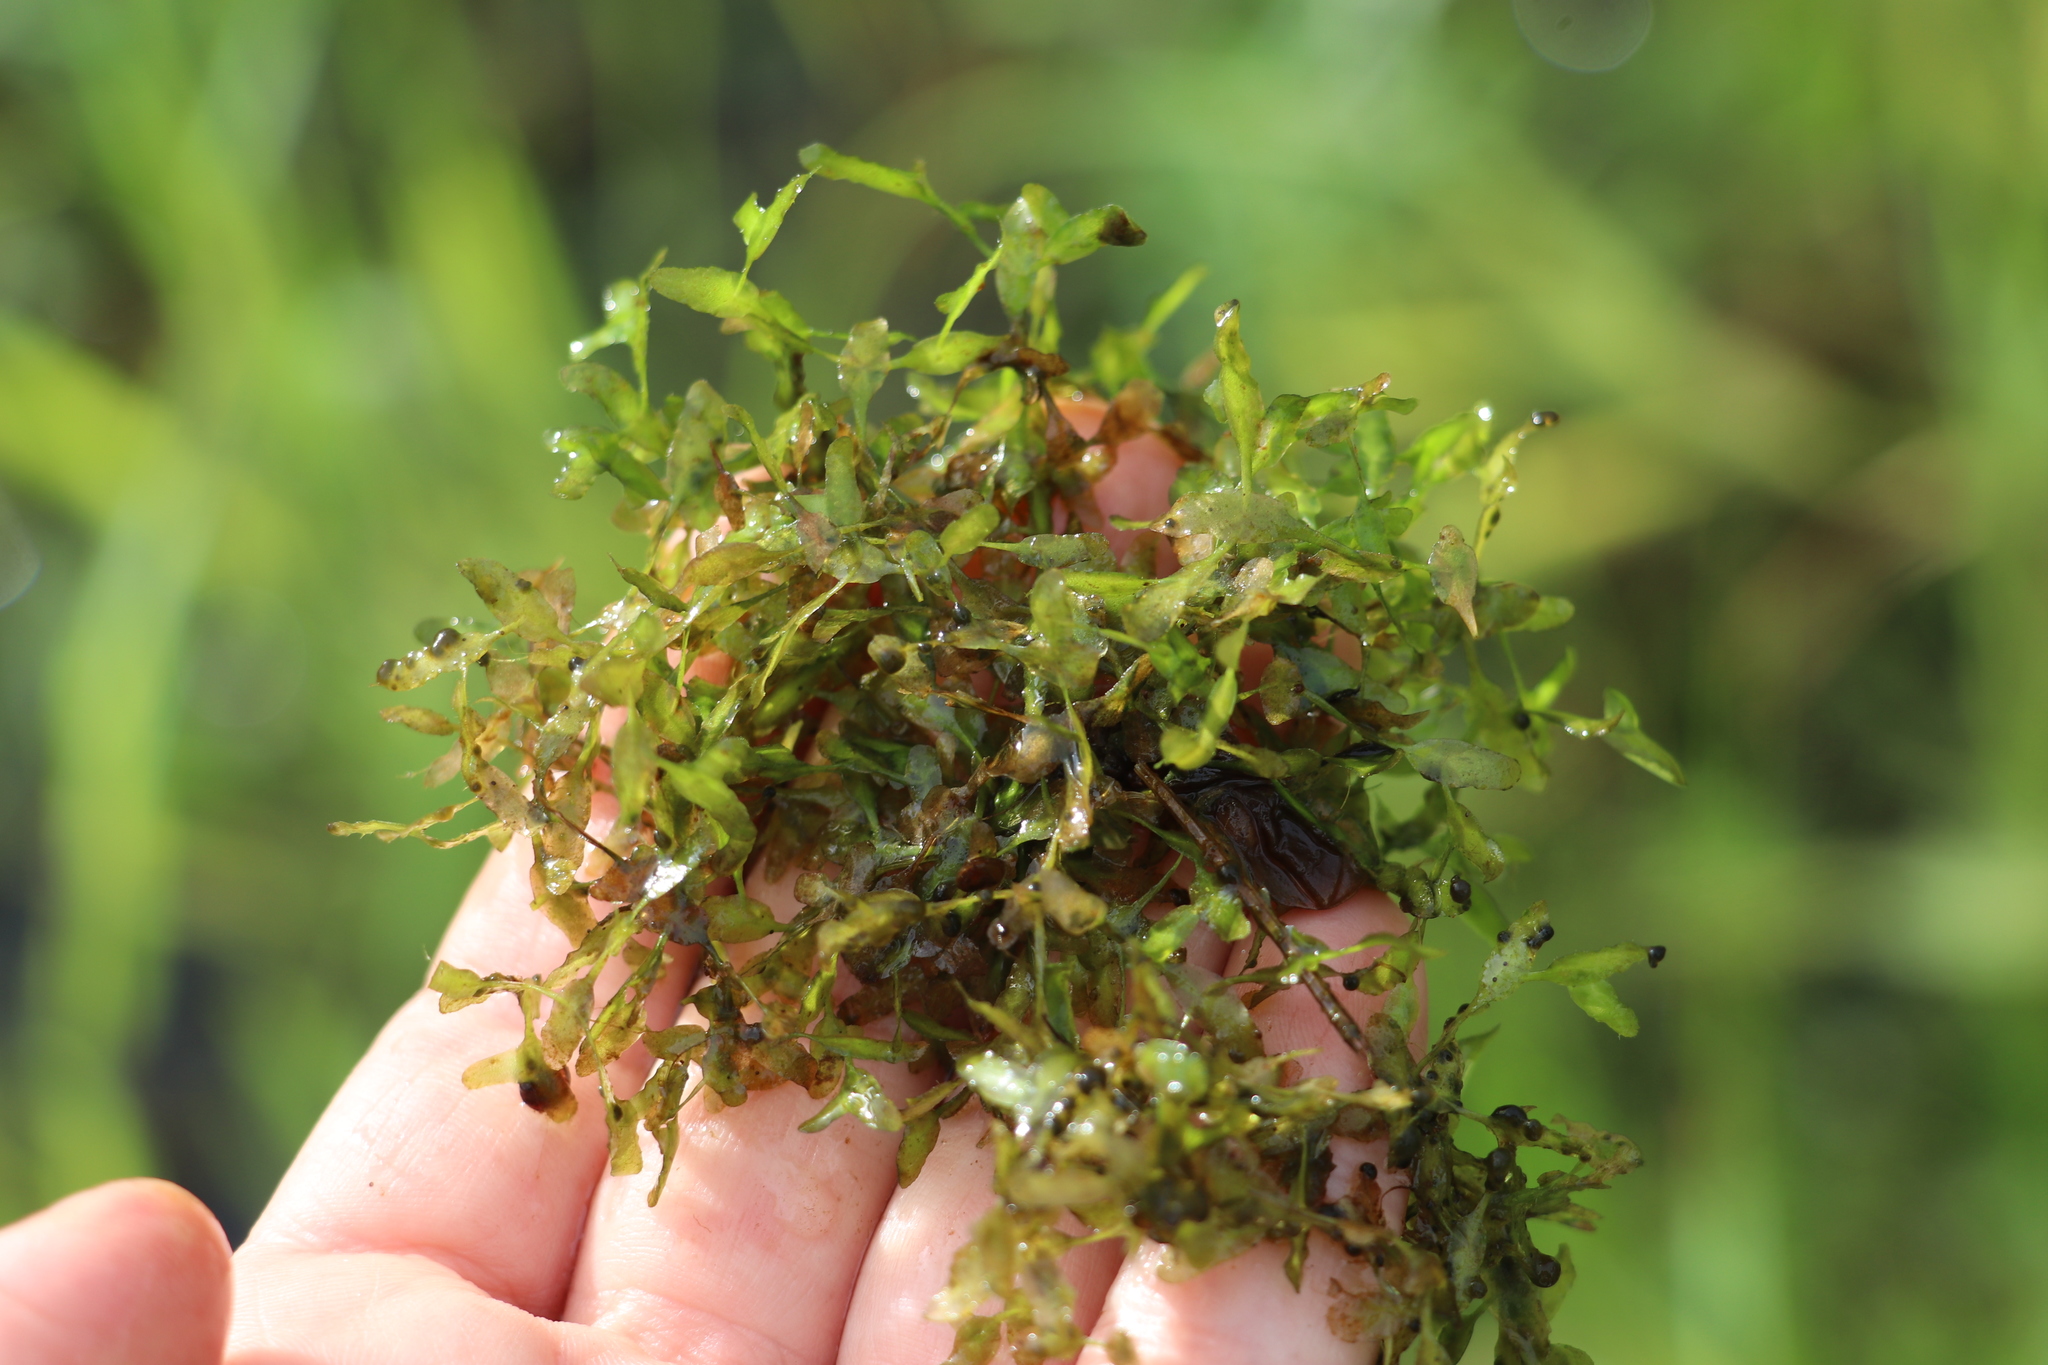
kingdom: Plantae
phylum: Tracheophyta
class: Liliopsida
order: Alismatales
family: Araceae
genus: Lemna
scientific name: Lemna trisulca
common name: Ivy-leaved duckweed
